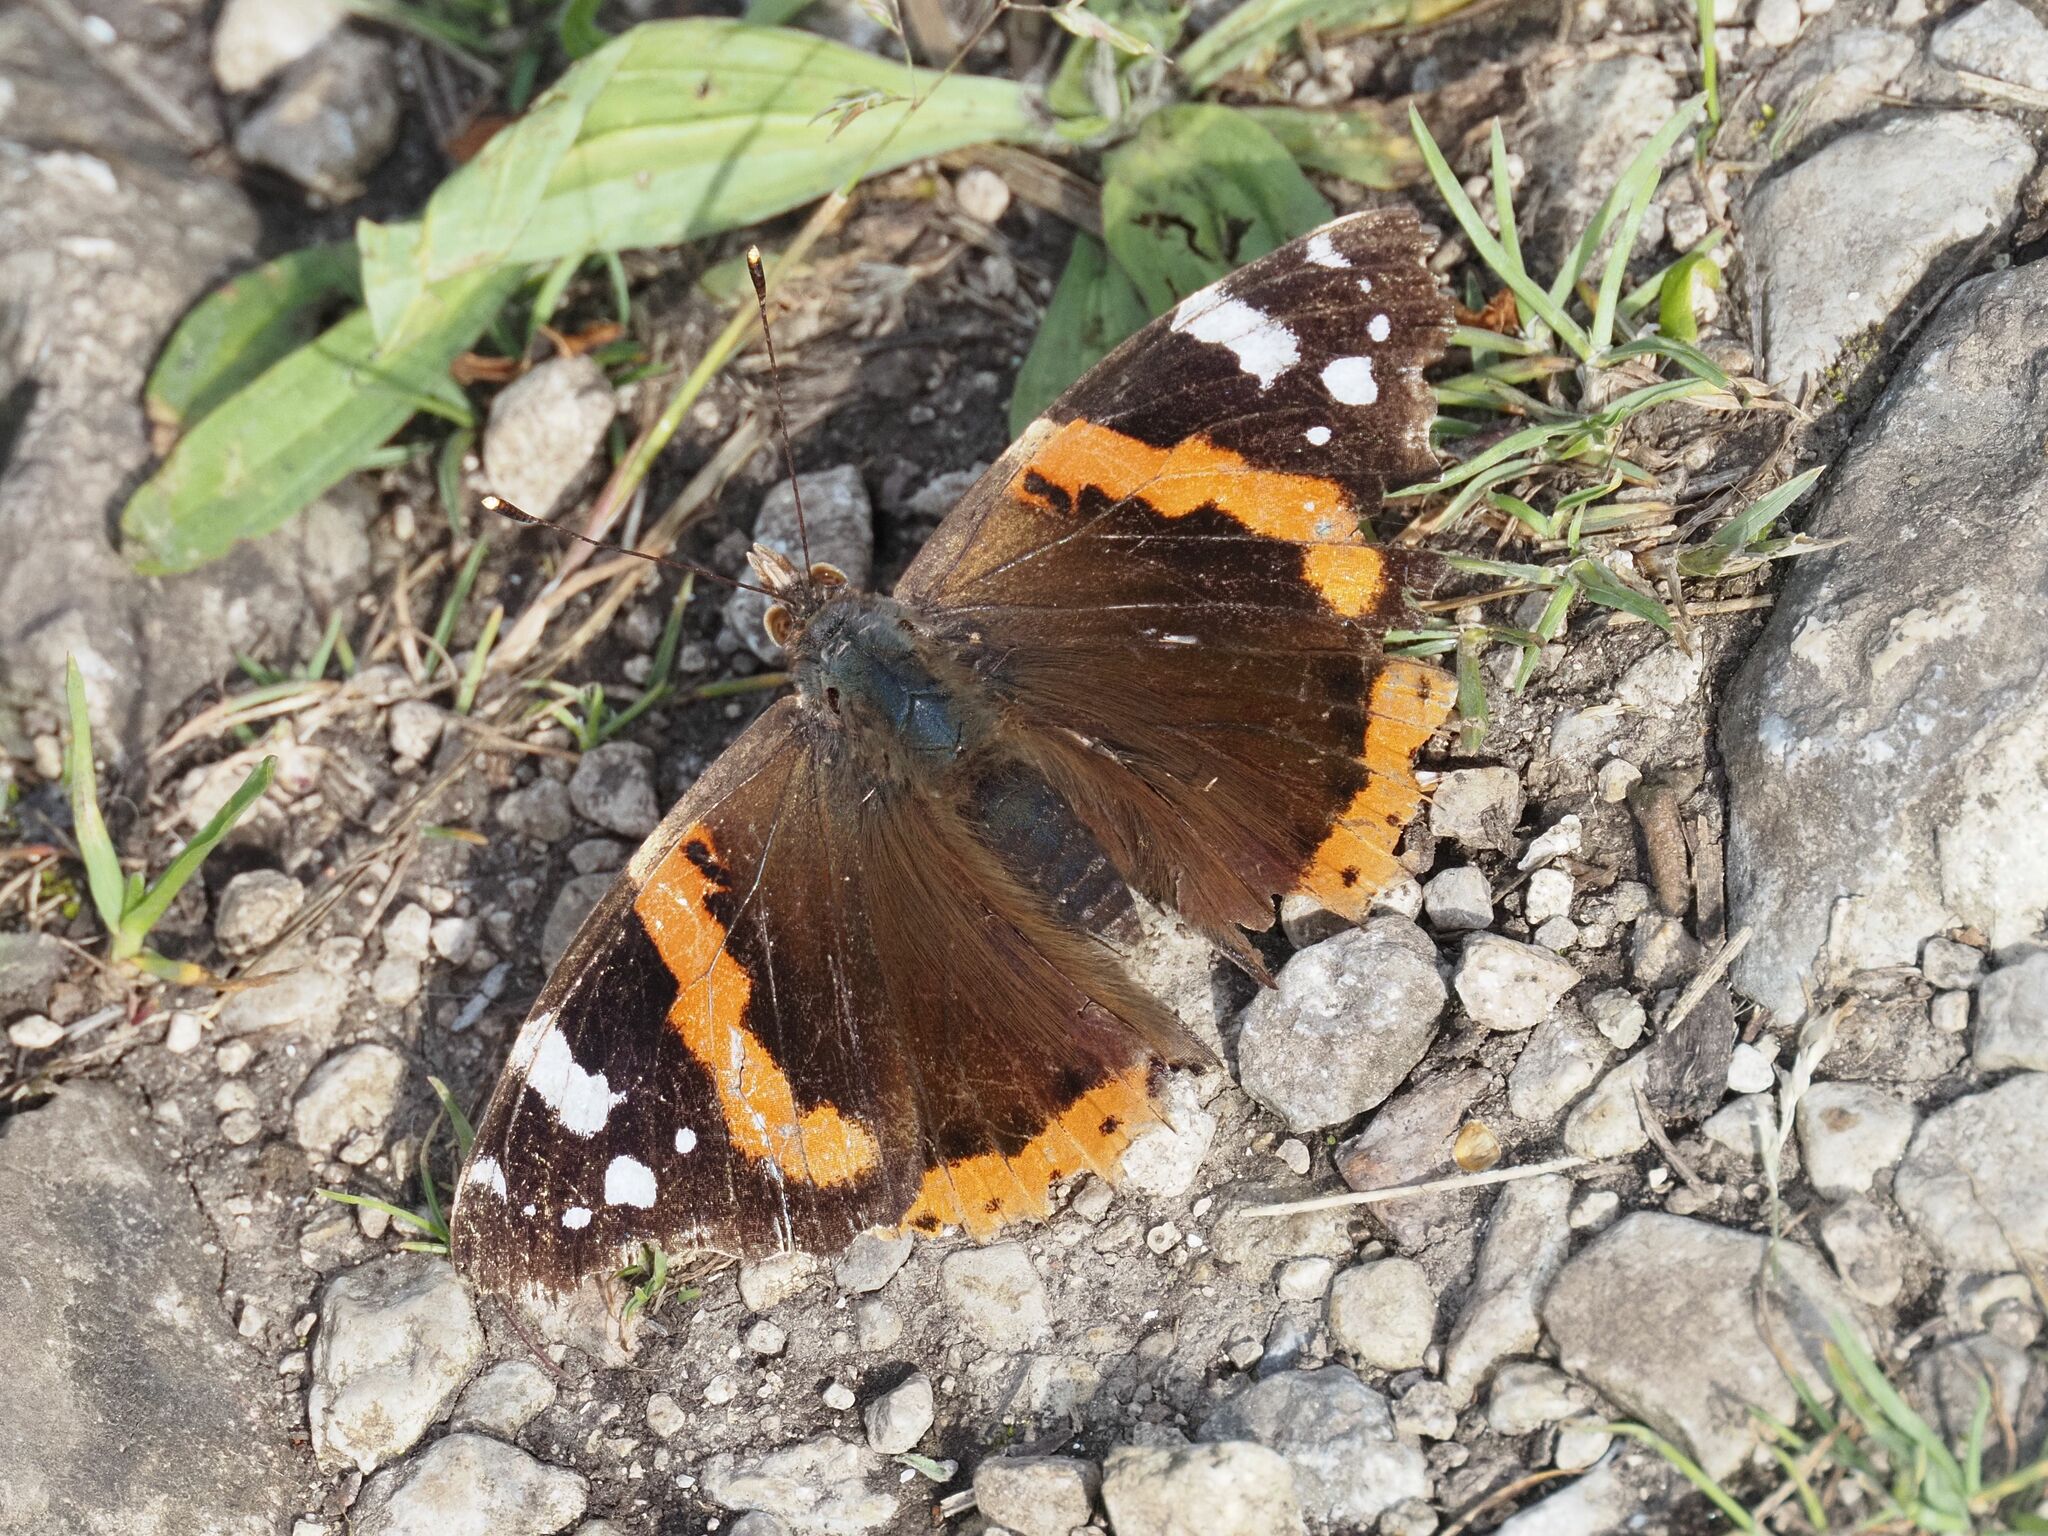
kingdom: Animalia
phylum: Arthropoda
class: Insecta
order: Lepidoptera
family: Nymphalidae
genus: Vanessa
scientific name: Vanessa atalanta
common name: Red admiral
